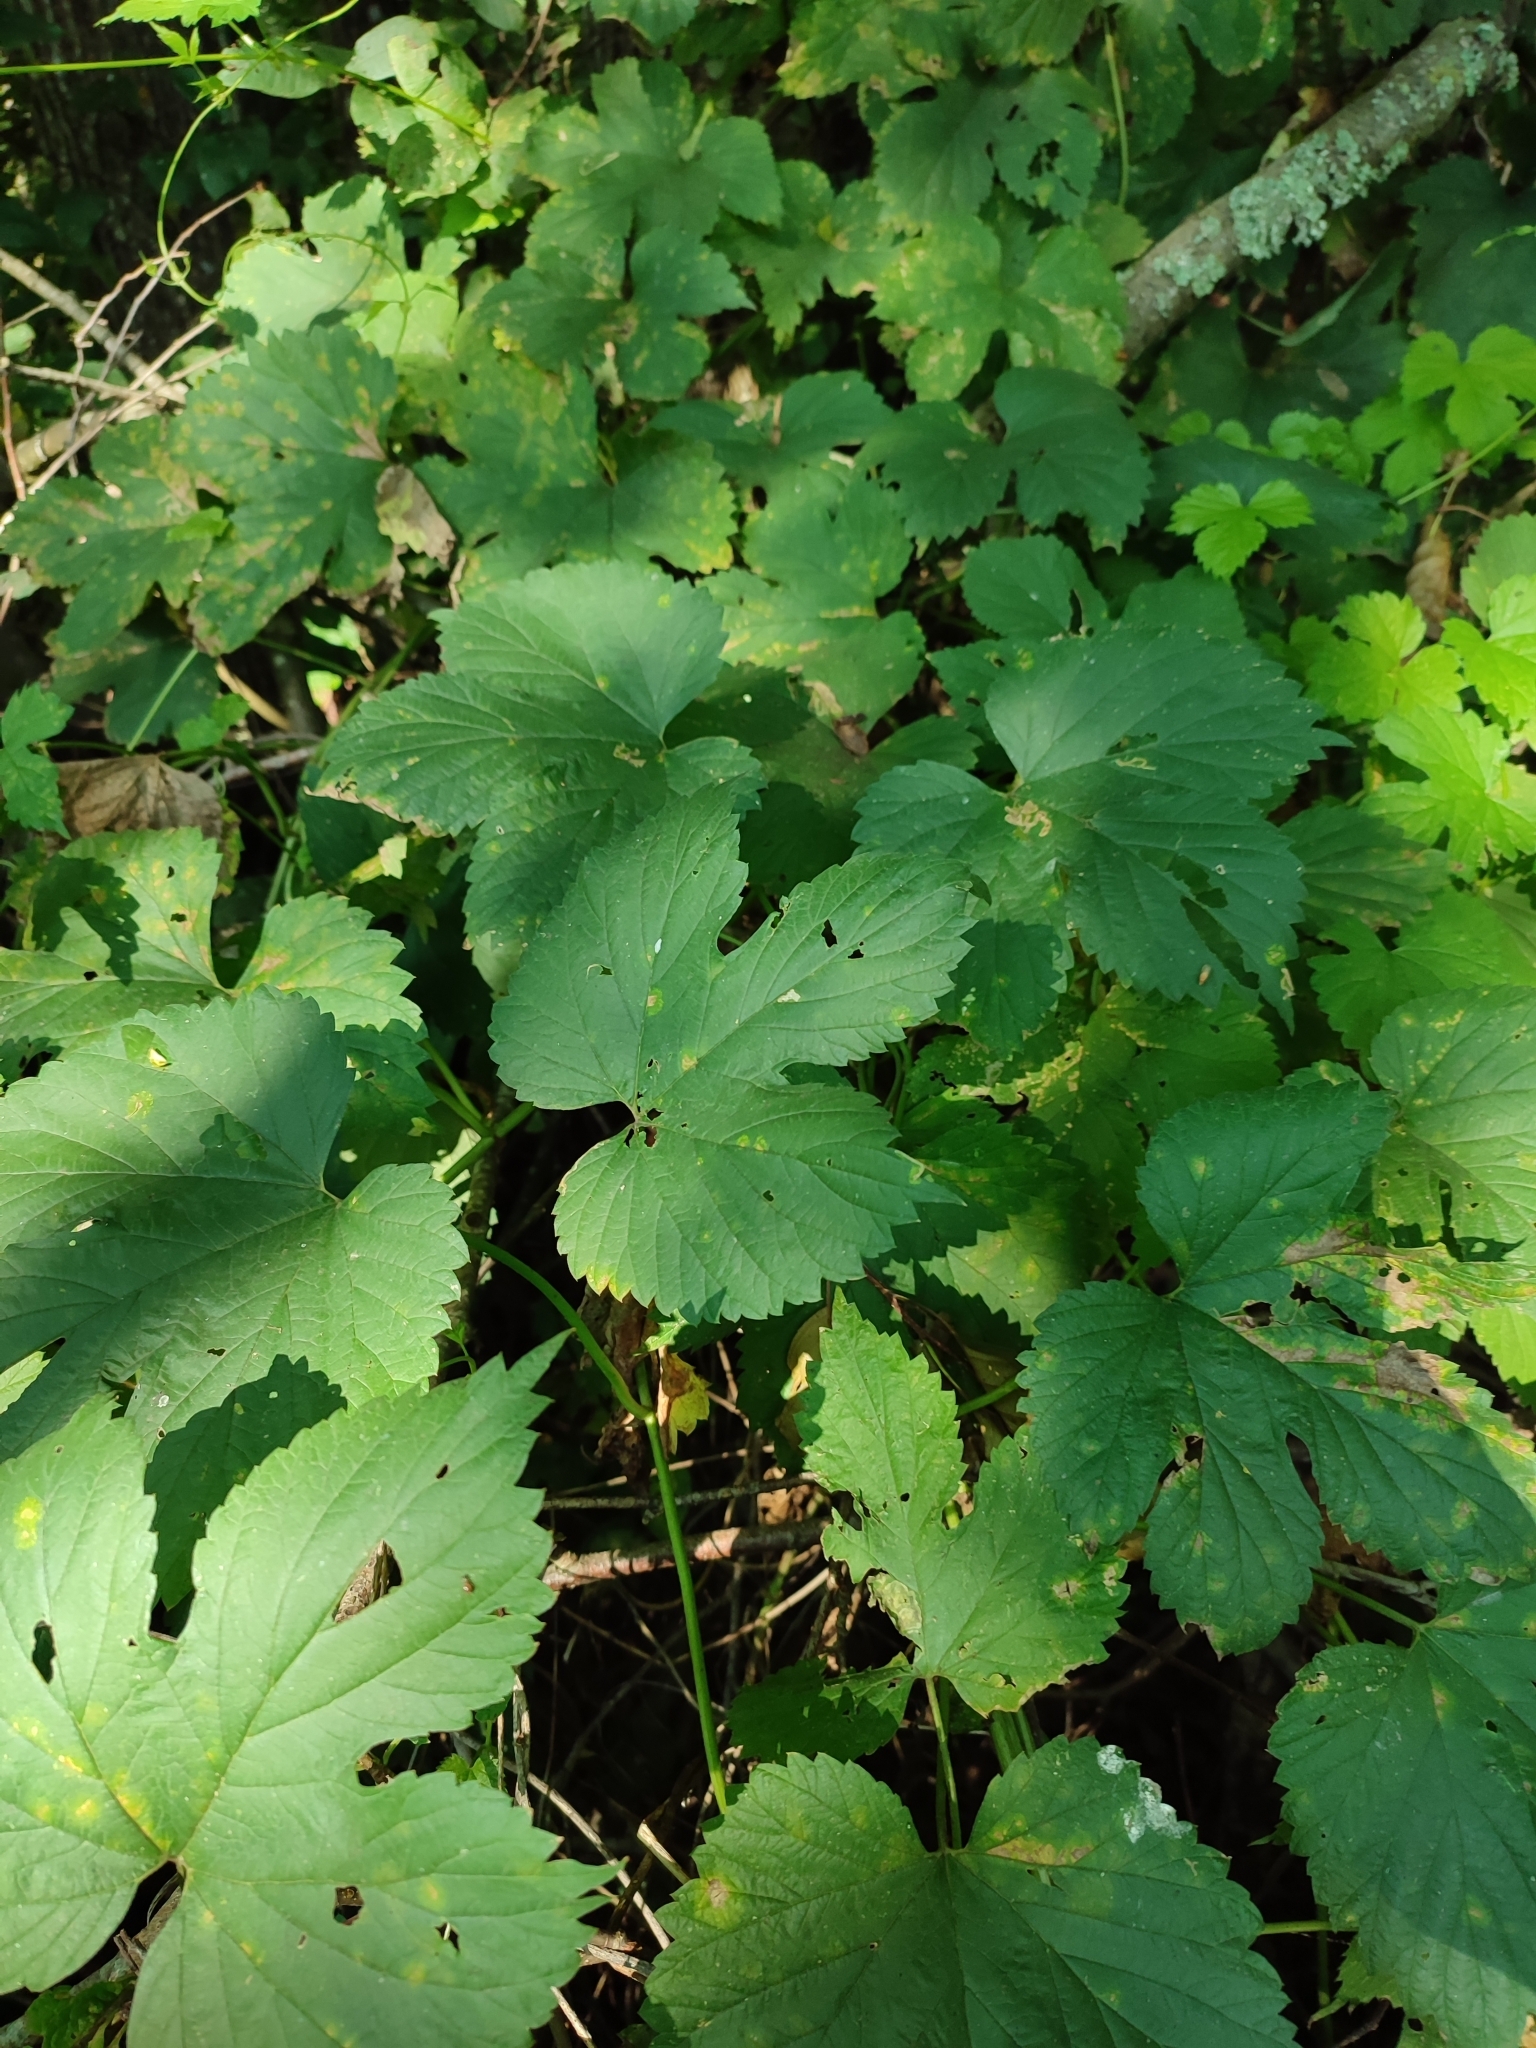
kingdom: Plantae
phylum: Tracheophyta
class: Magnoliopsida
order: Rosales
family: Cannabaceae
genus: Humulus
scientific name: Humulus lupulus
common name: Hop
